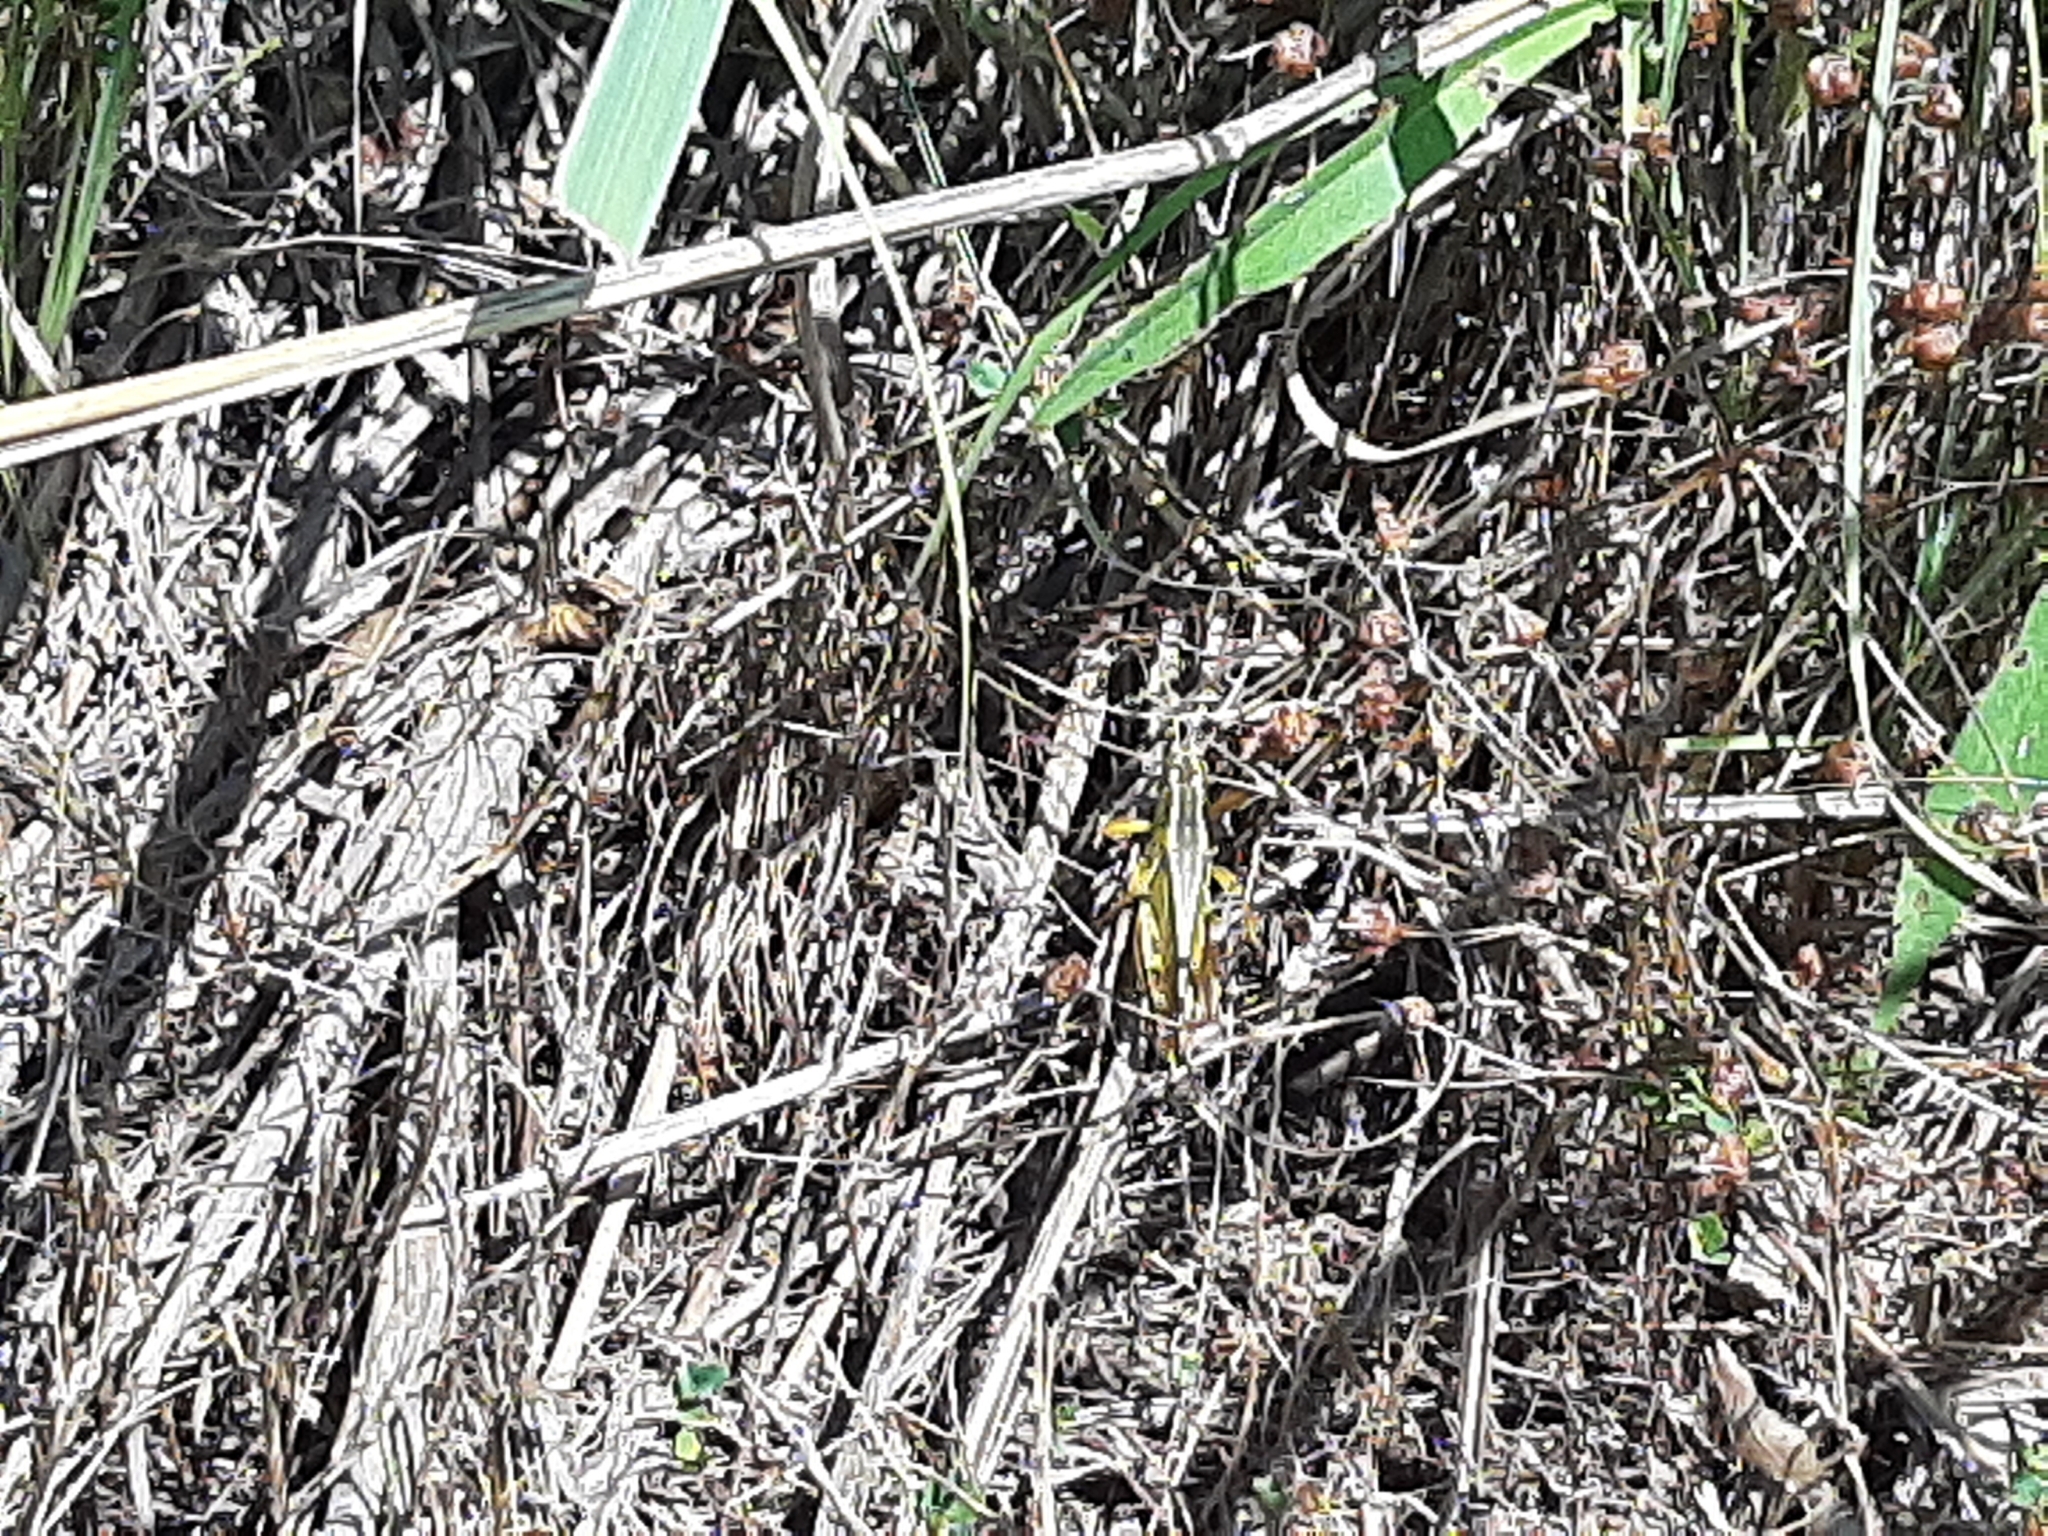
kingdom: Animalia
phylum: Arthropoda
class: Insecta
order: Orthoptera
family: Acrididae
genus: Melanoplus
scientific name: Melanoplus bivittatus
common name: Two-striped grasshopper
